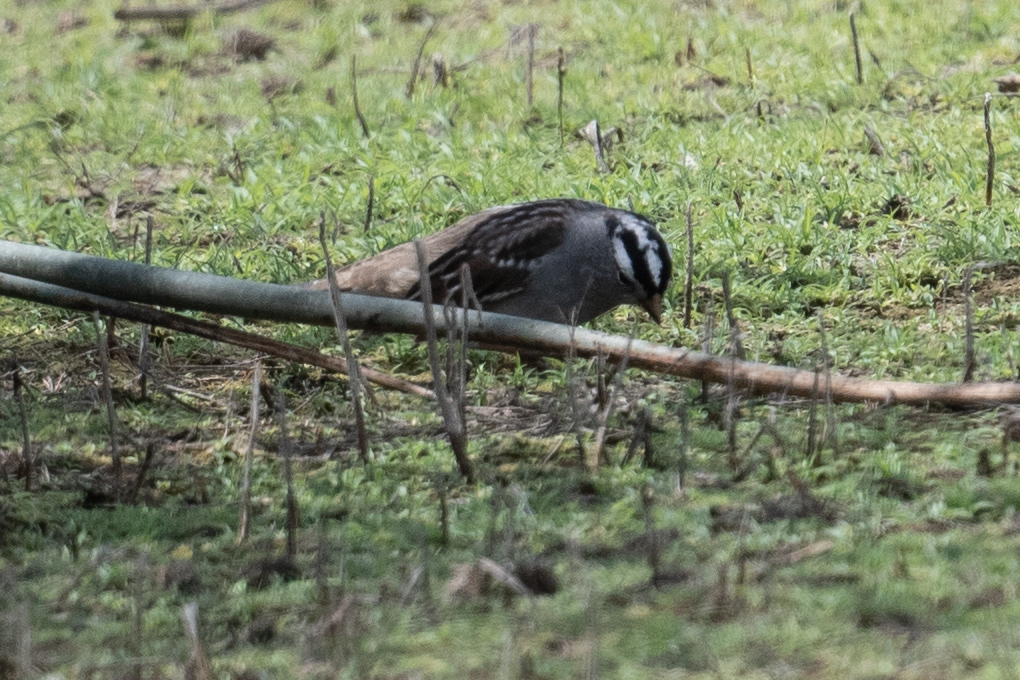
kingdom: Animalia
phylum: Chordata
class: Aves
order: Passeriformes
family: Passerellidae
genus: Zonotrichia
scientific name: Zonotrichia leucophrys
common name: White-crowned sparrow
